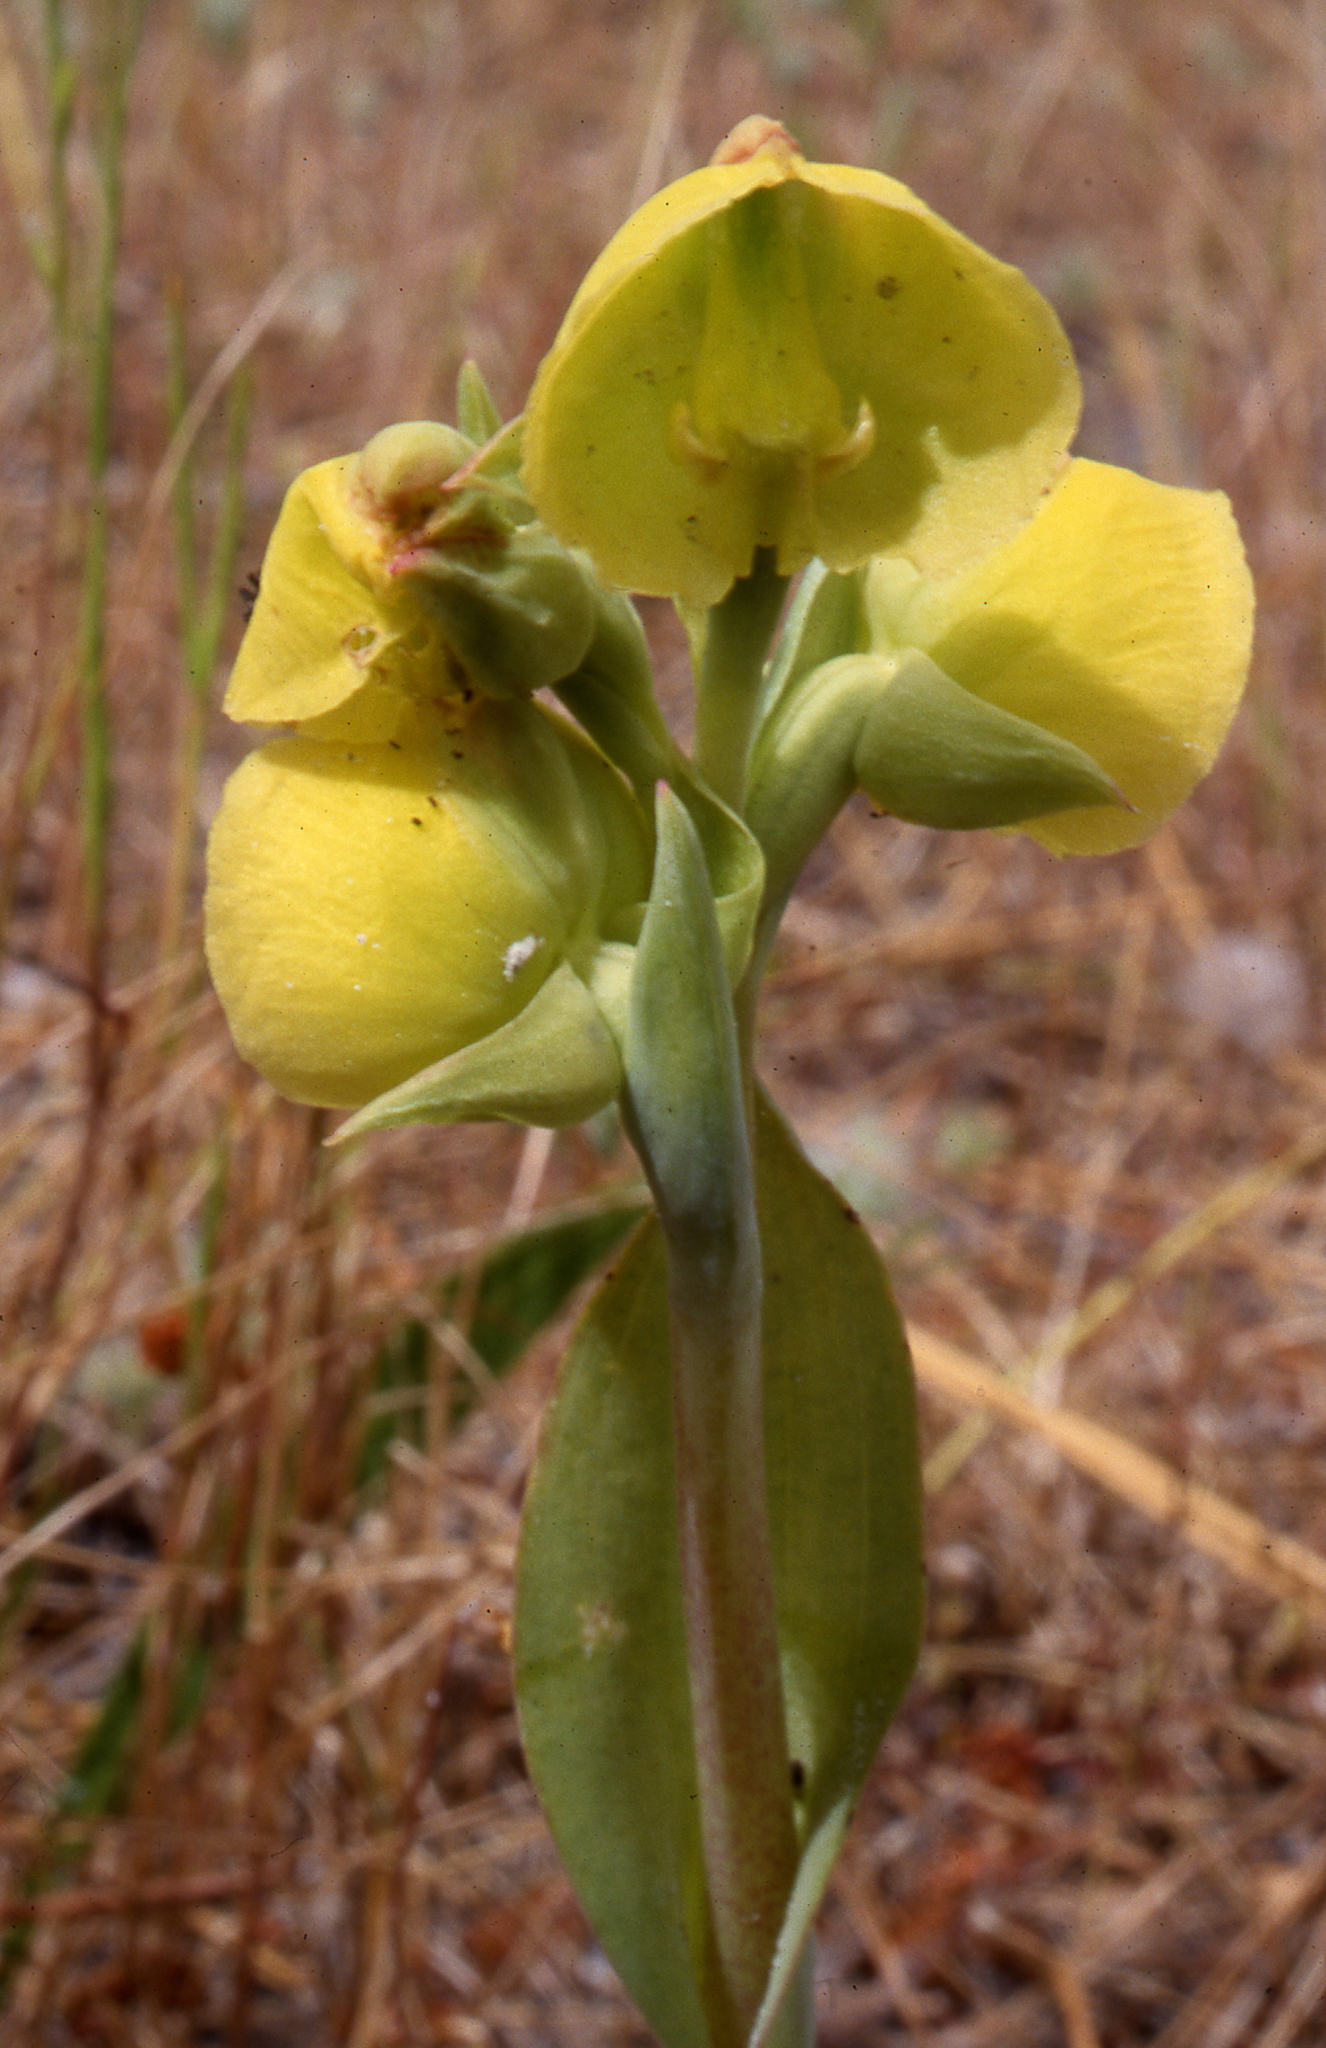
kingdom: Plantae
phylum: Tracheophyta
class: Liliopsida
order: Asparagales
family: Orchidaceae
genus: Pterygodium
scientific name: Pterygodium catholicum
